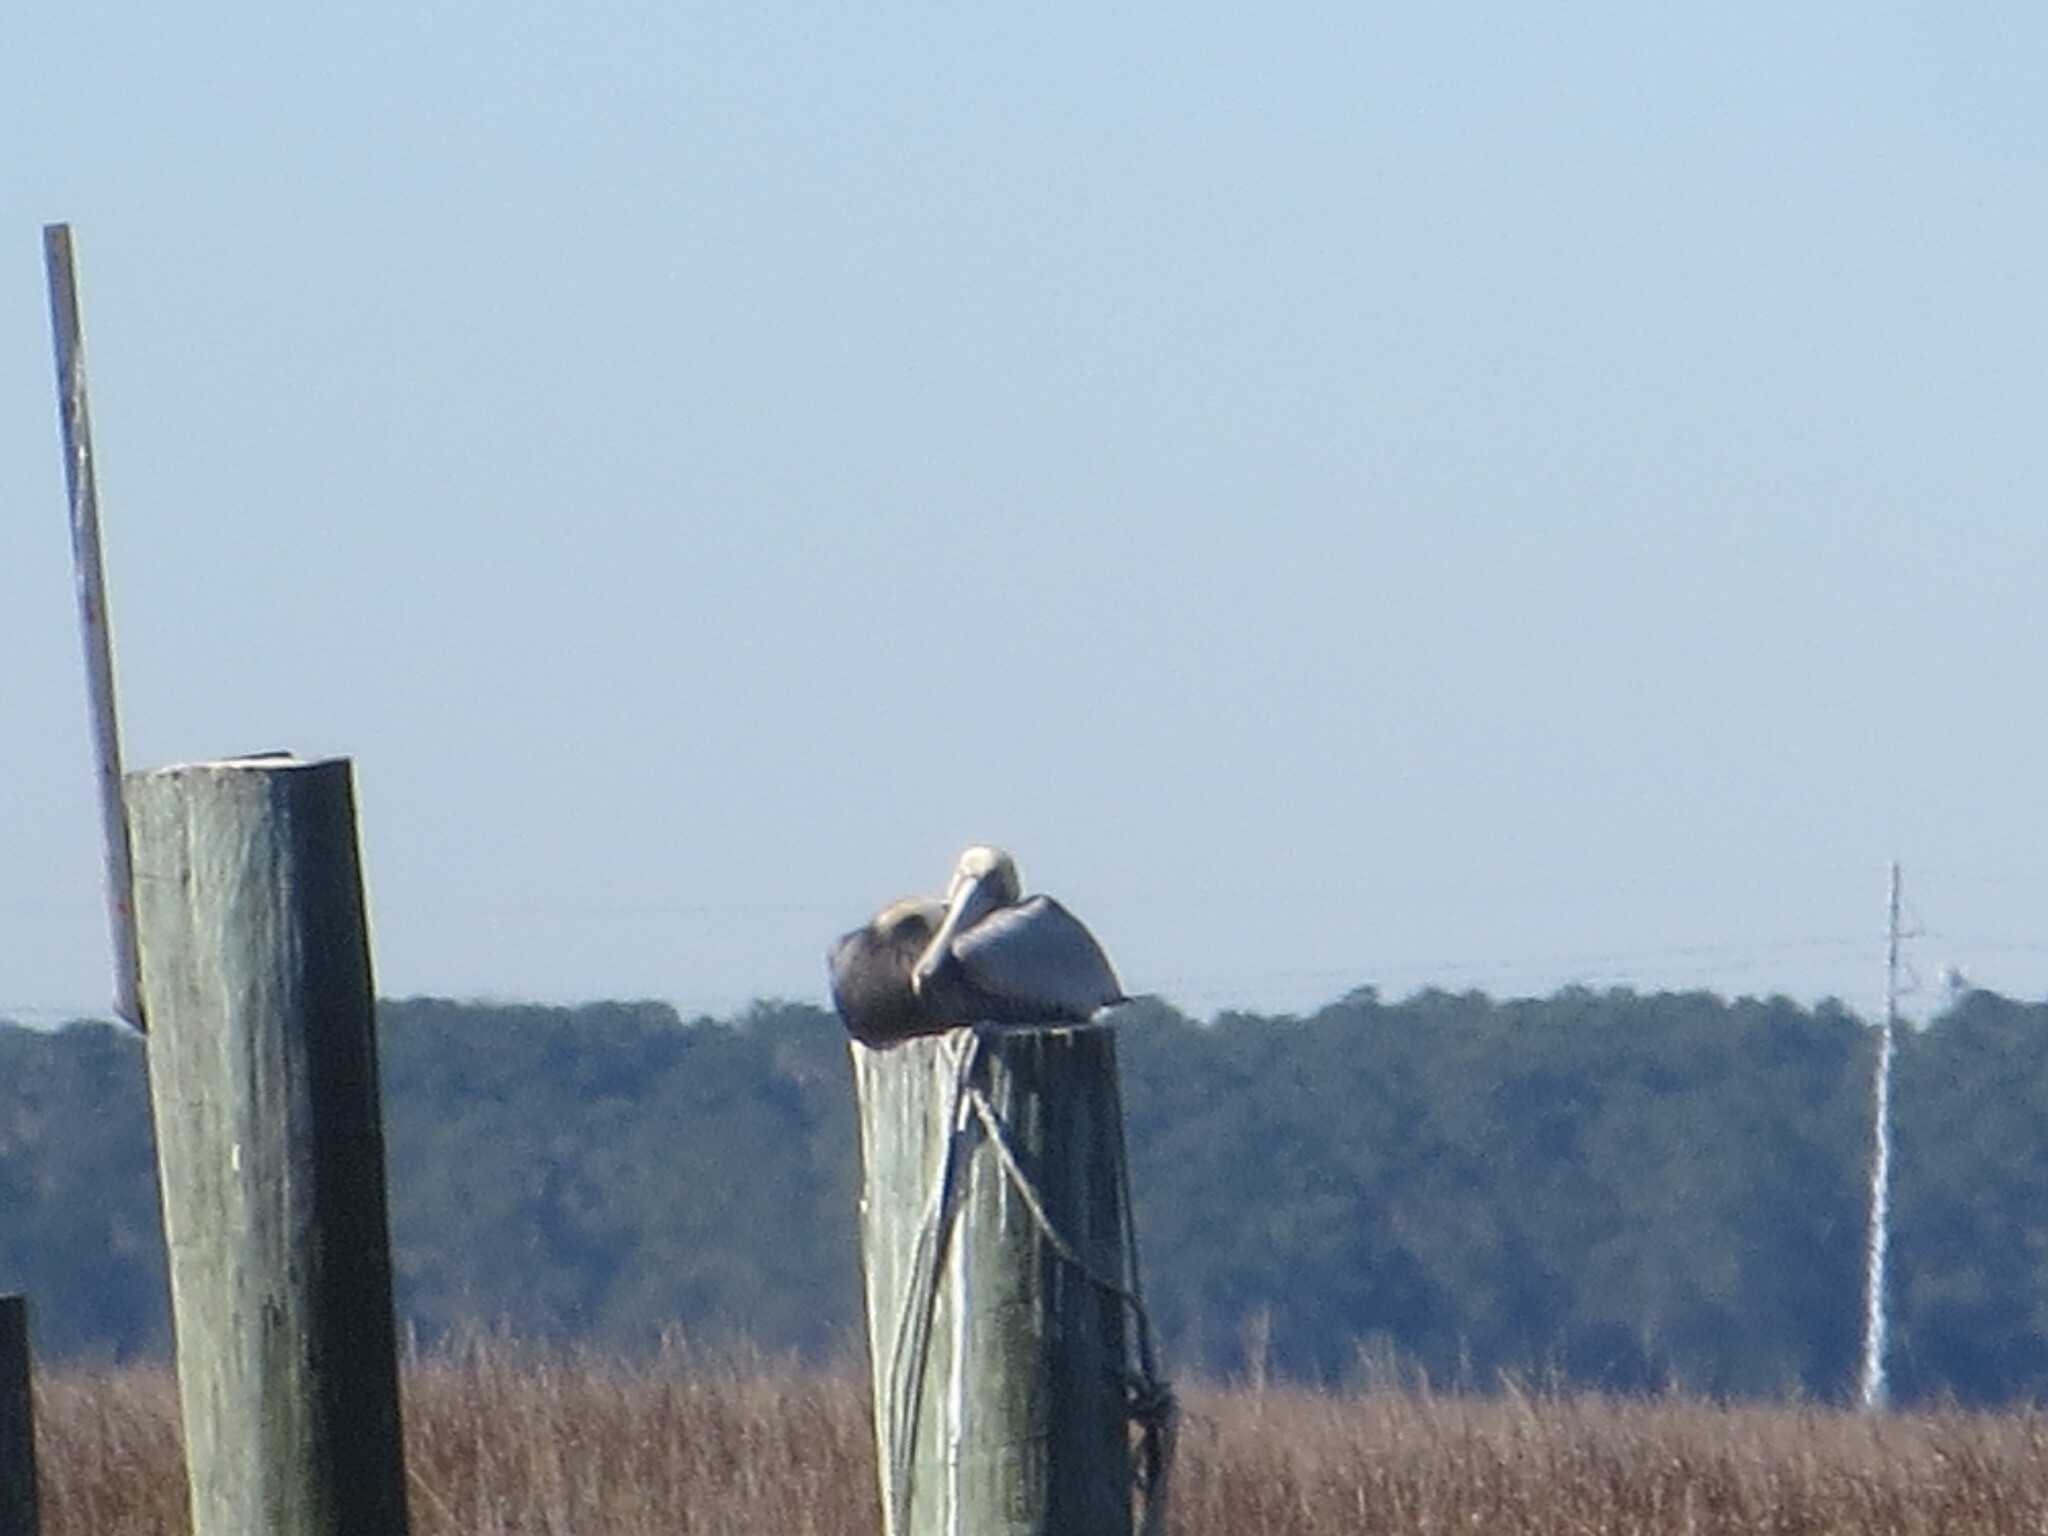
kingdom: Animalia
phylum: Chordata
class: Aves
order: Pelecaniformes
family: Pelecanidae
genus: Pelecanus
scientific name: Pelecanus occidentalis
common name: Brown pelican
